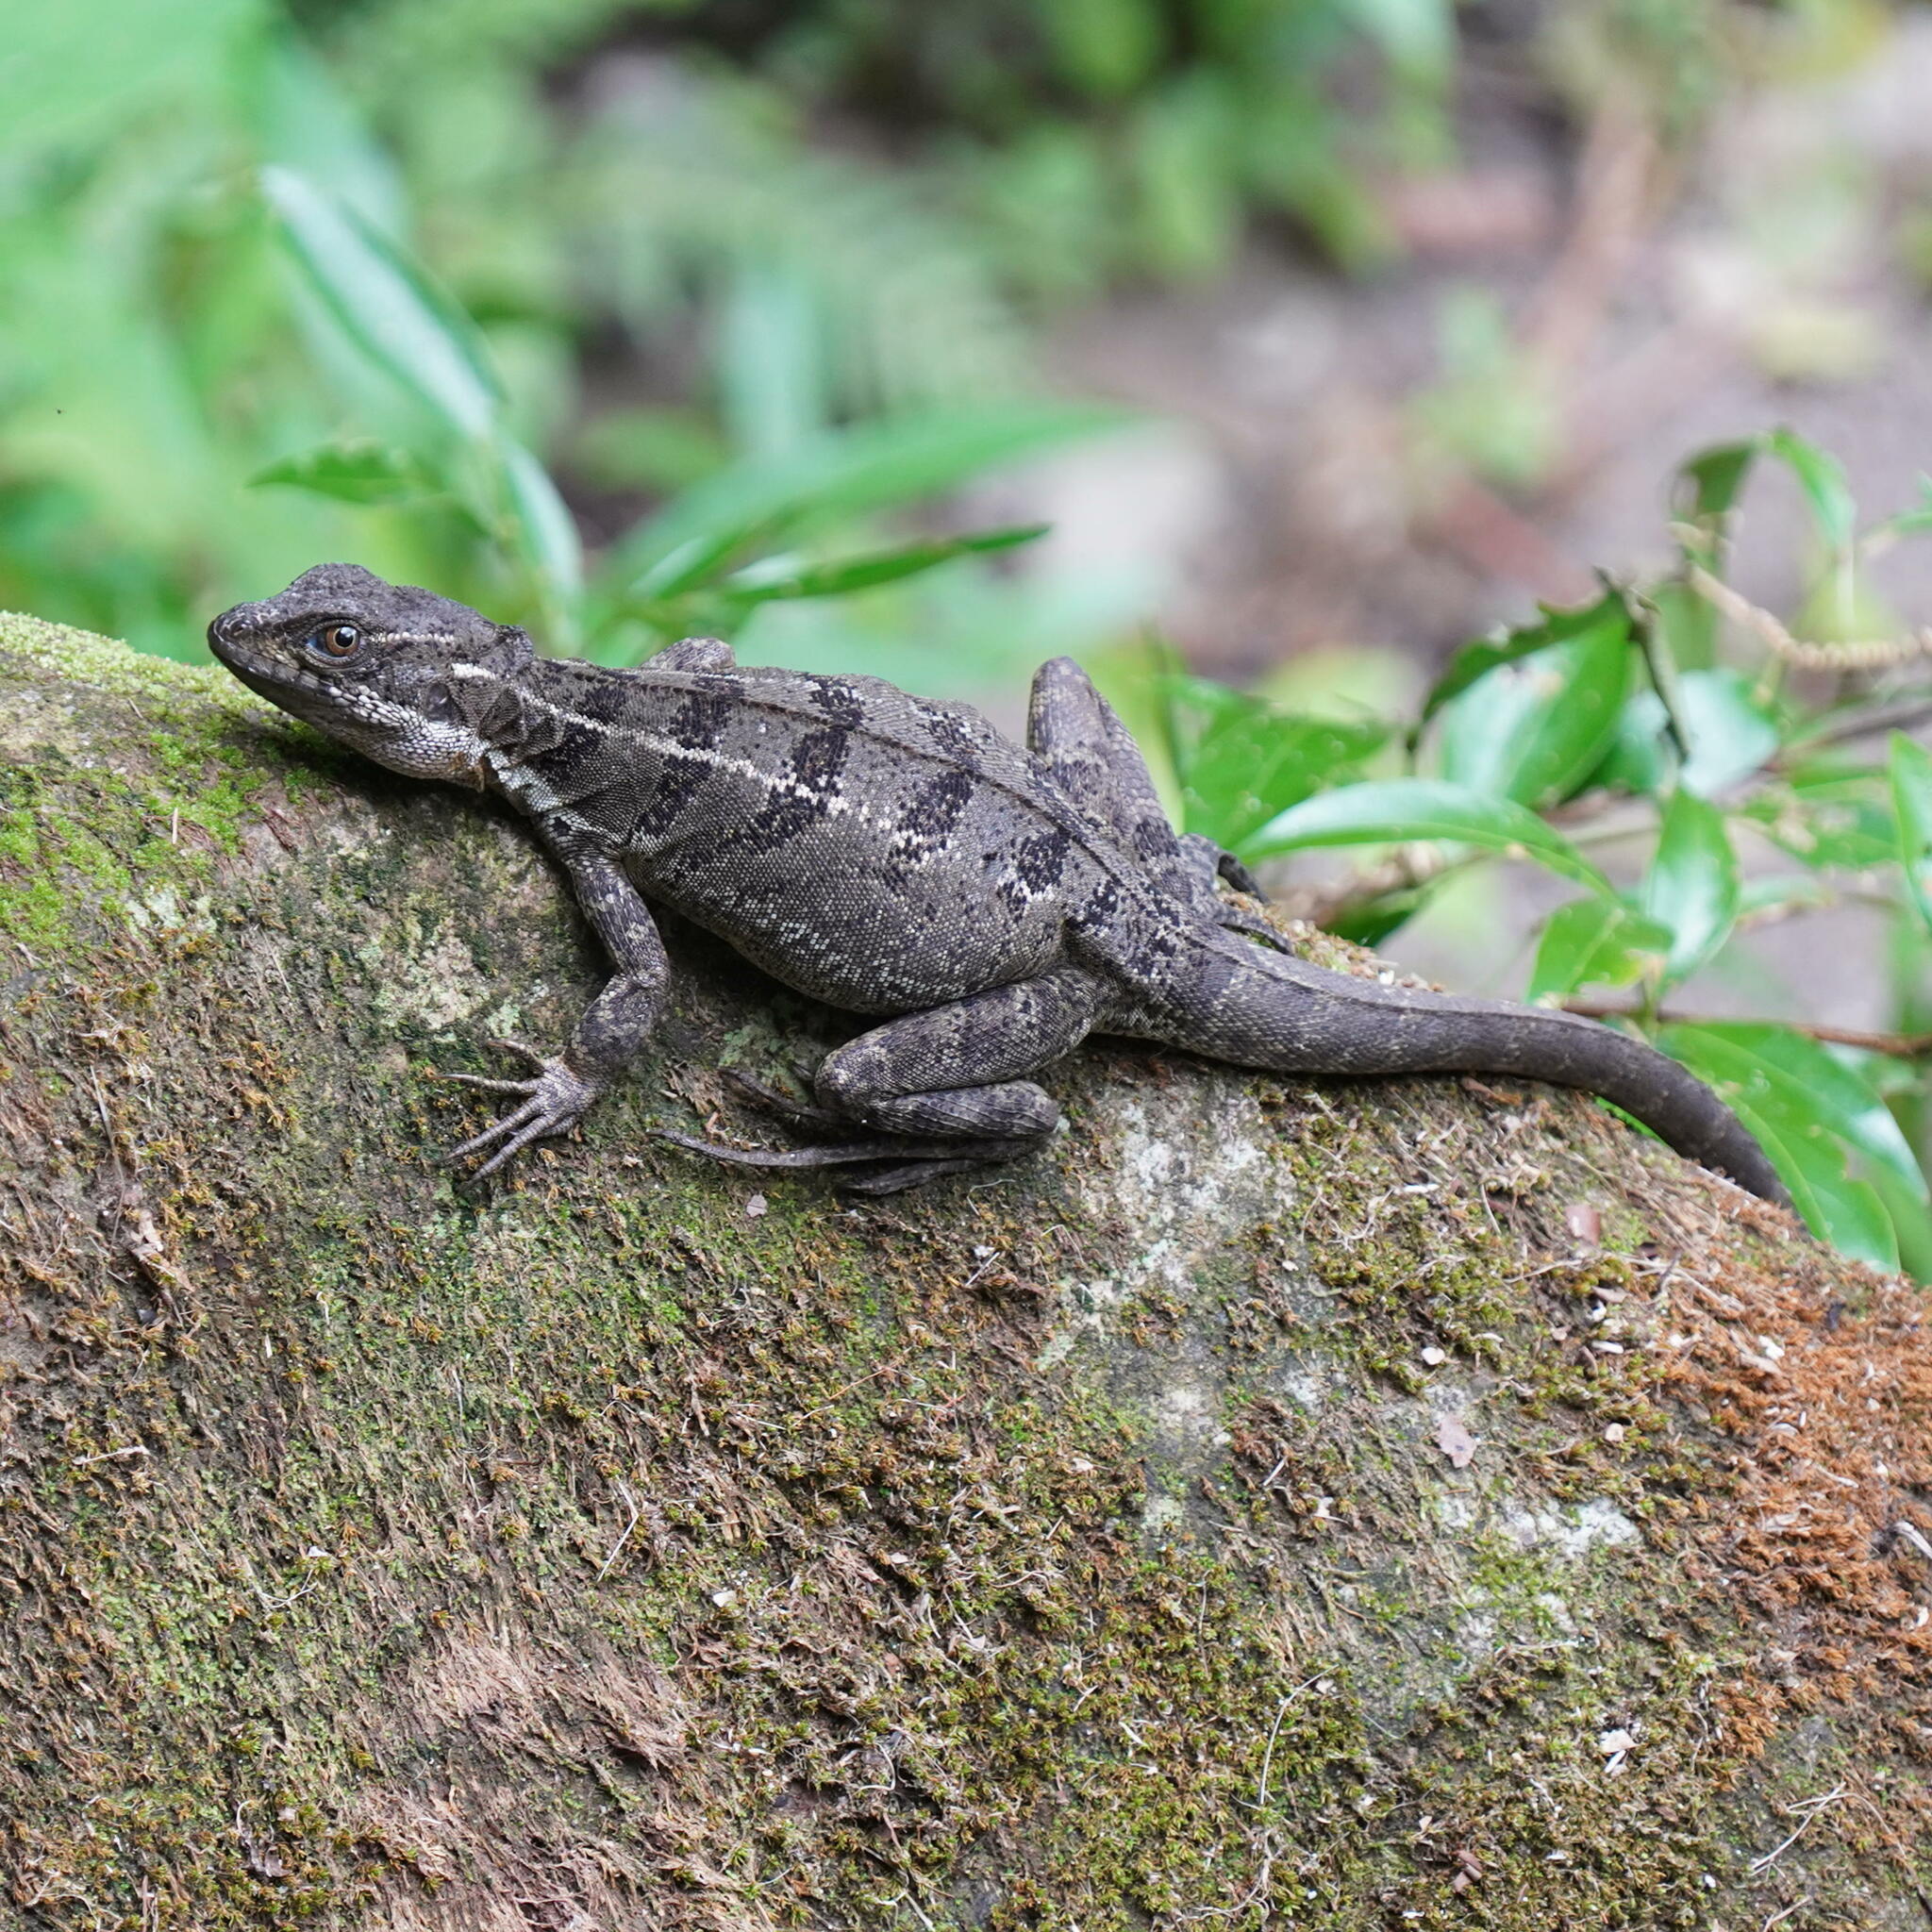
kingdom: Animalia
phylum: Chordata
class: Squamata
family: Corytophanidae
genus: Basiliscus
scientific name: Basiliscus basiliscus
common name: Common basilisk
